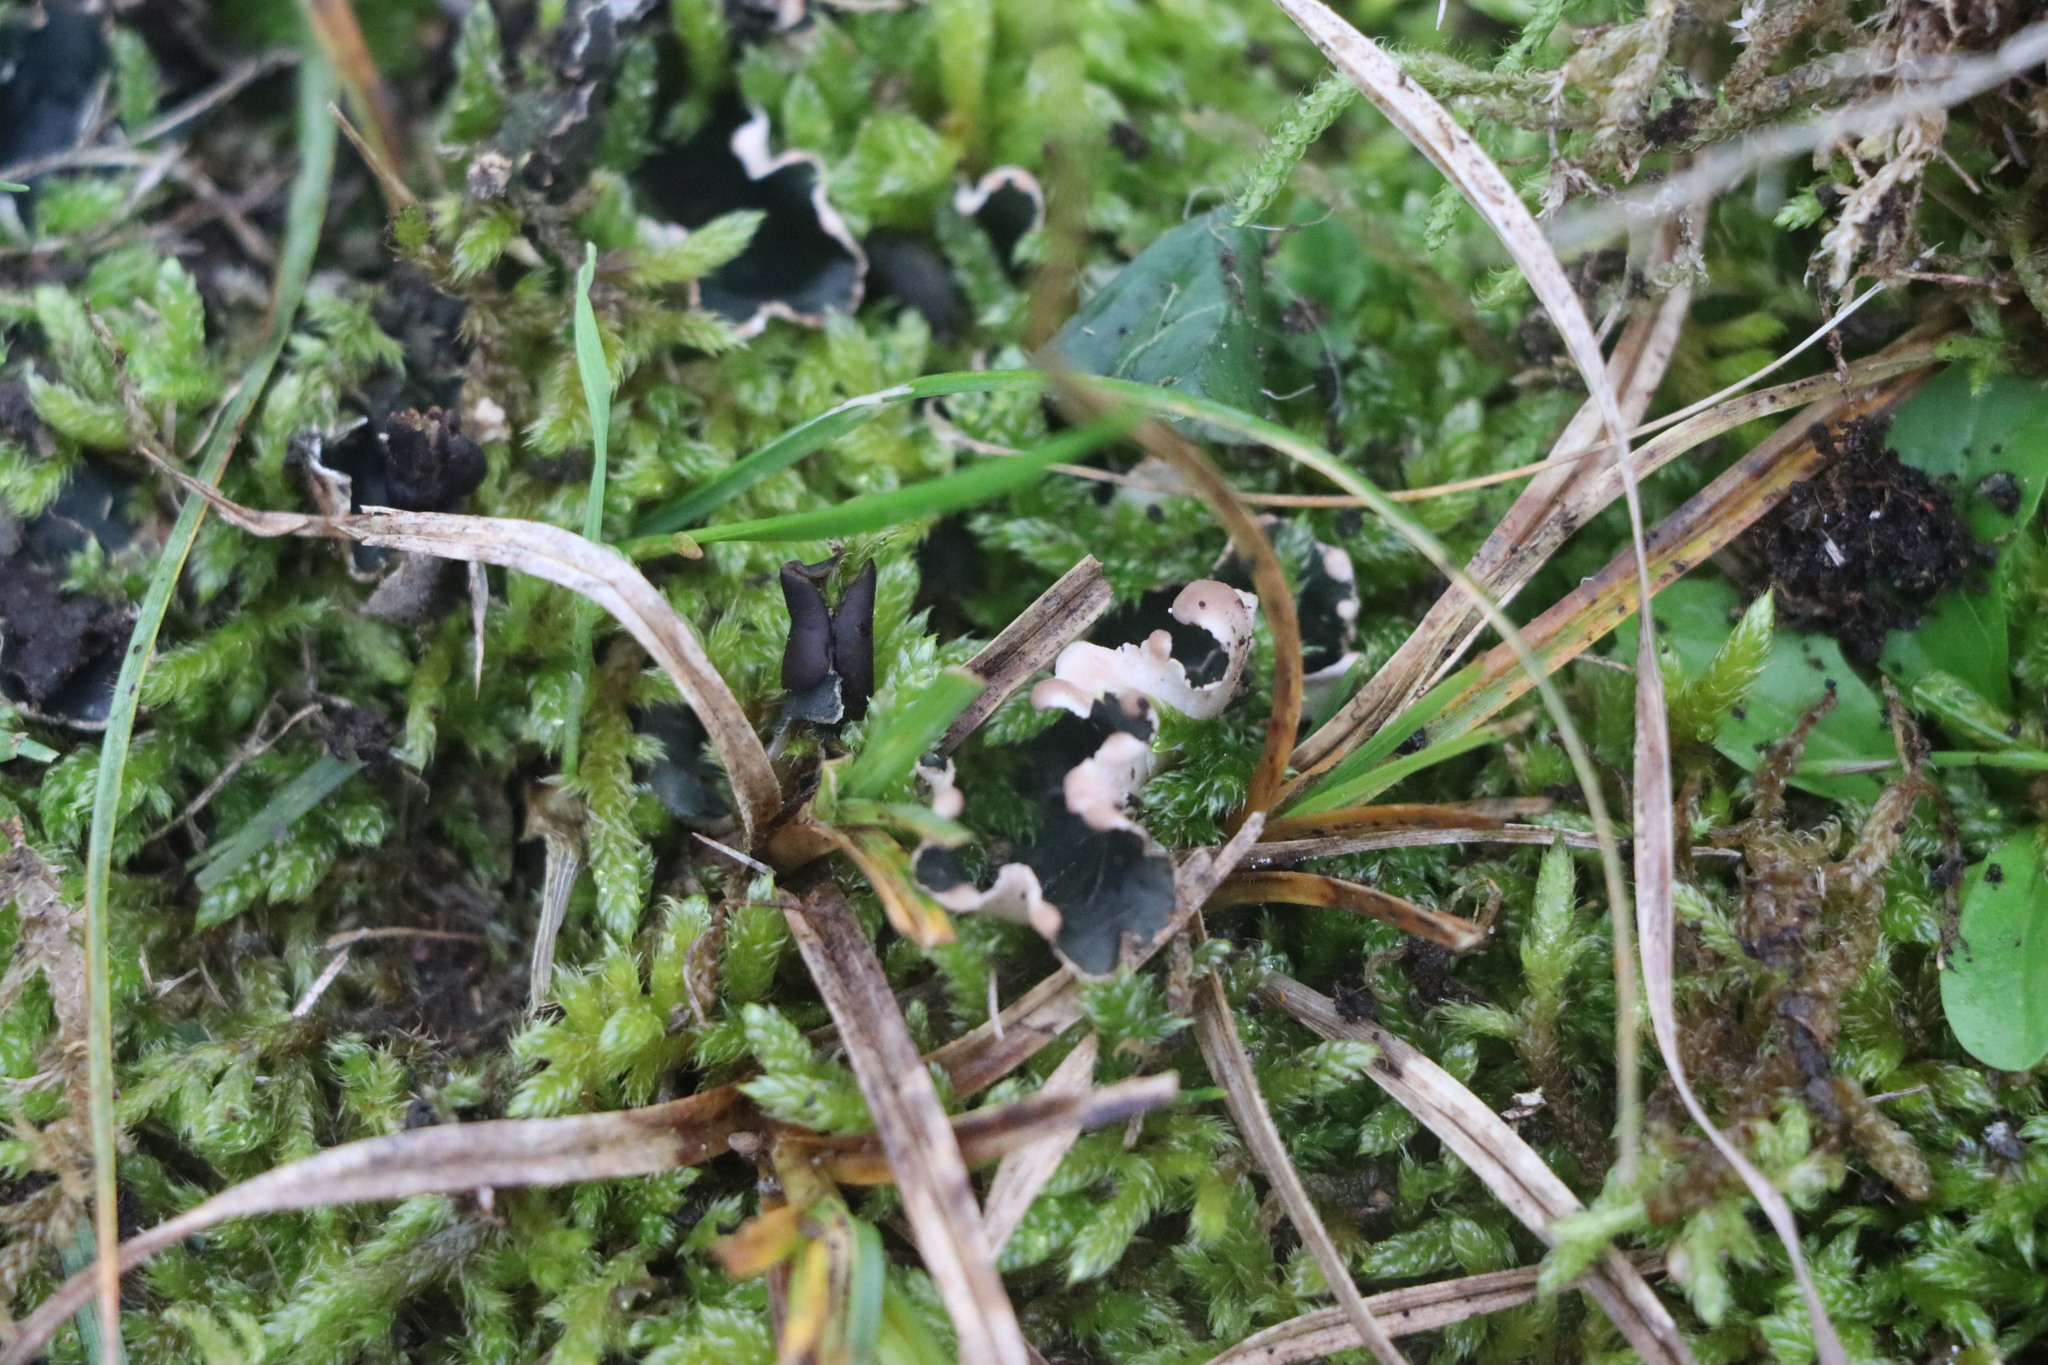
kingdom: Fungi
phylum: Ascomycota
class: Lecanoromycetes
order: Peltigerales
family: Peltigeraceae
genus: Peltigera
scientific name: Peltigera
